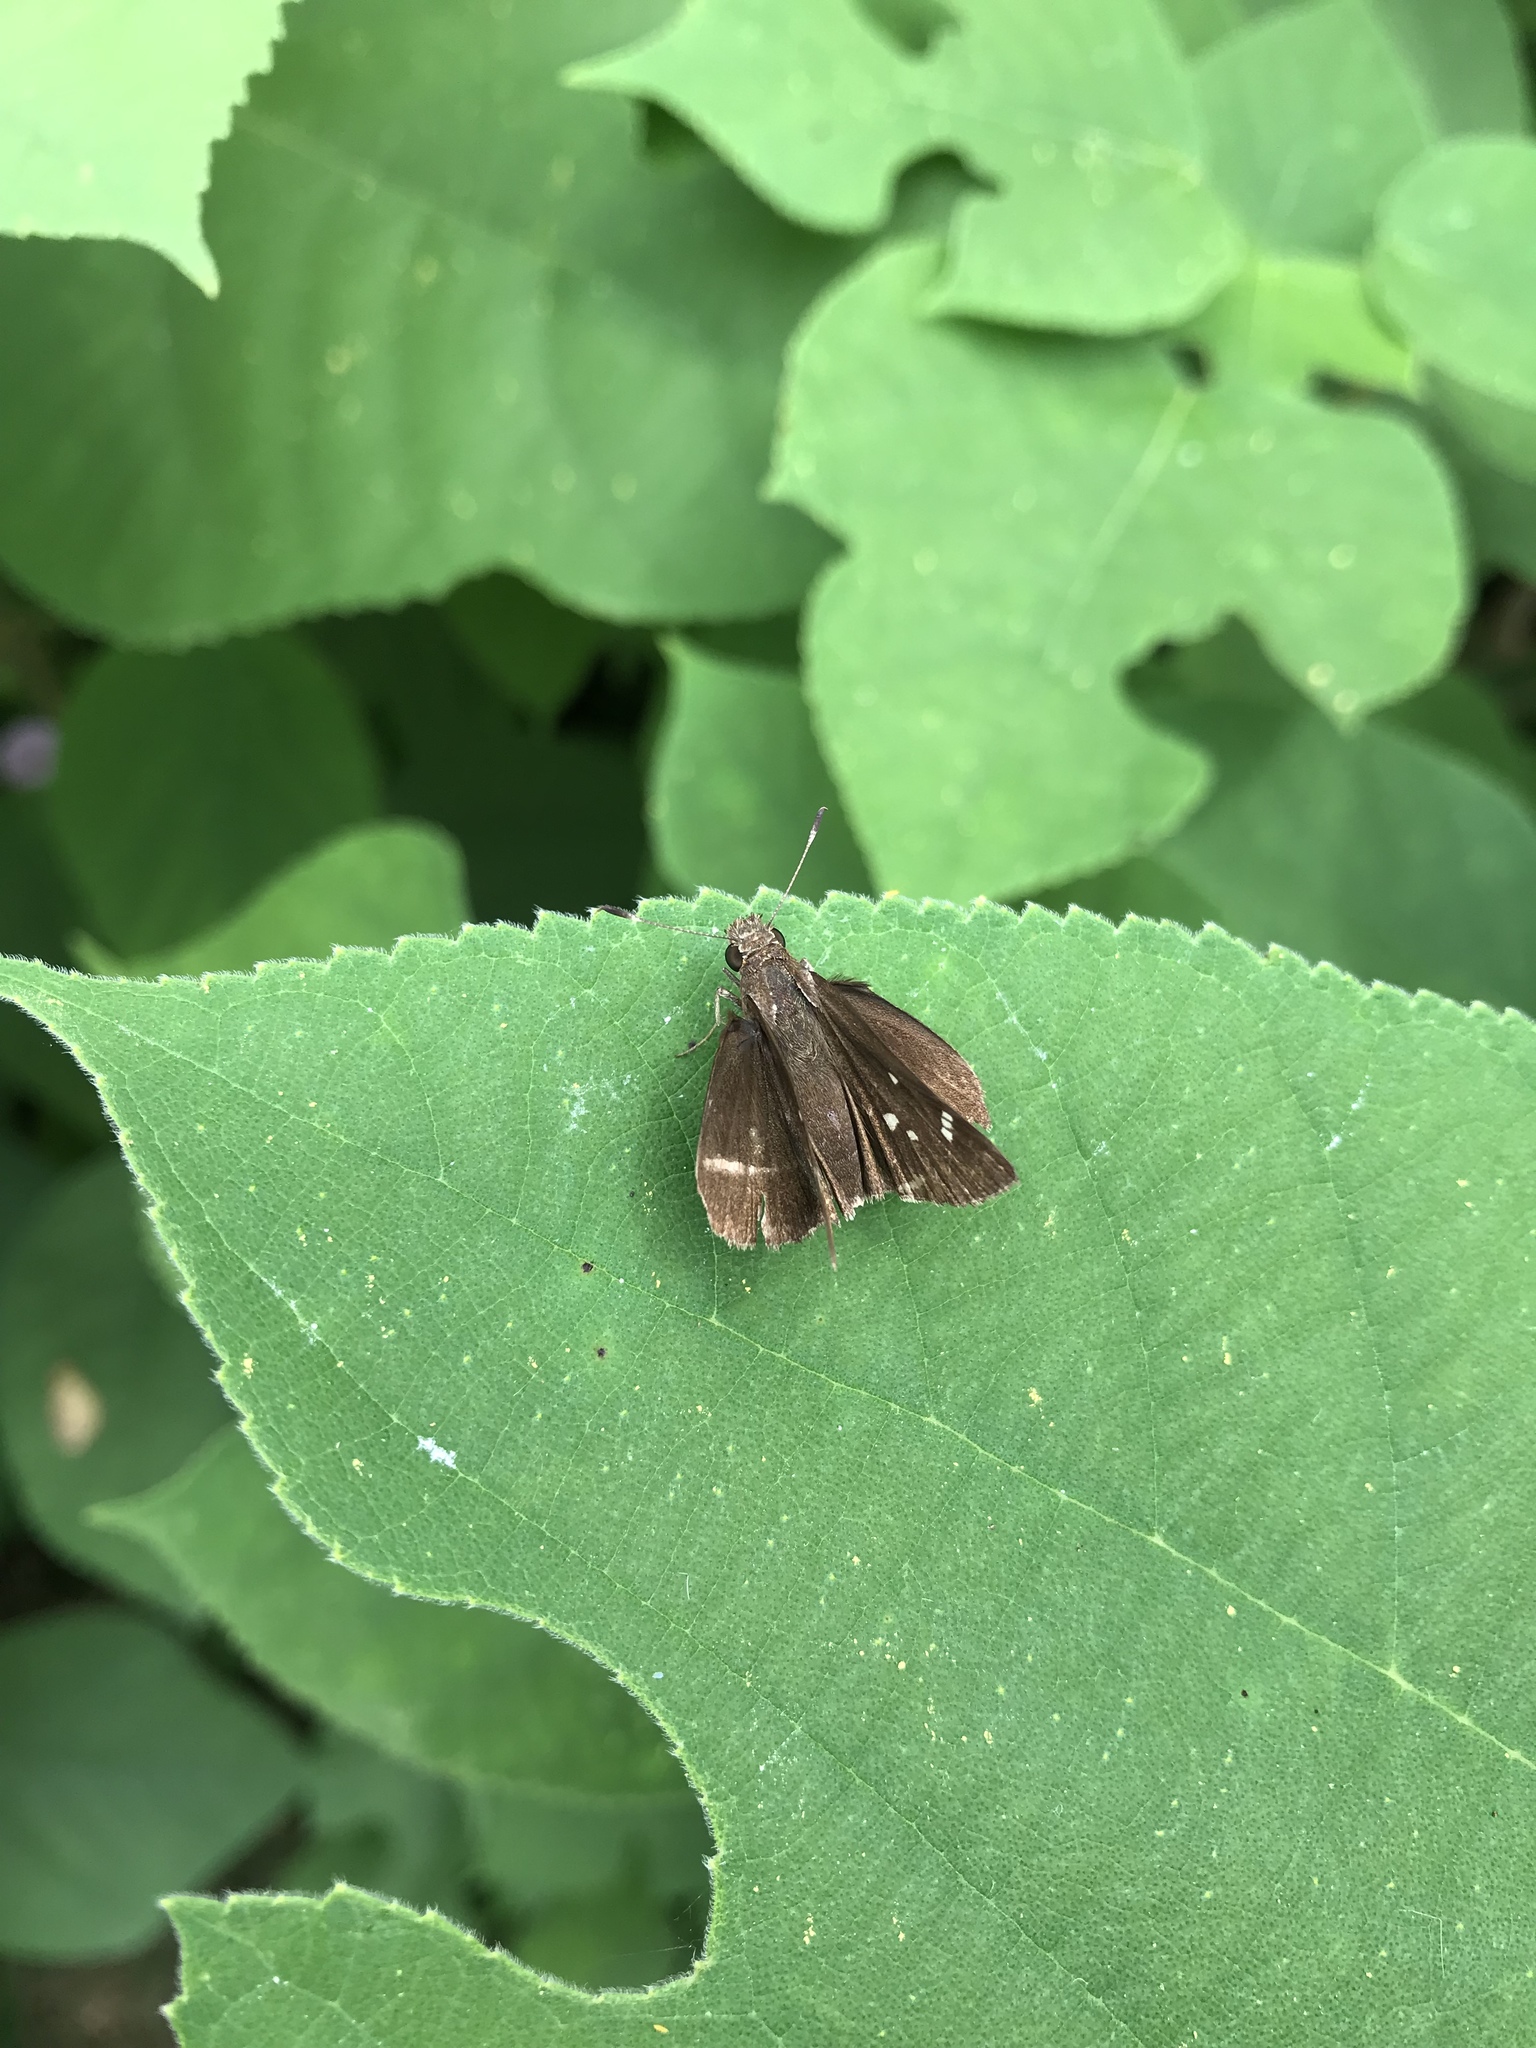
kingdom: Animalia
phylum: Arthropoda
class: Insecta
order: Lepidoptera
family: Hesperiidae
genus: Lerema
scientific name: Lerema accius
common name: Clouded skipper
